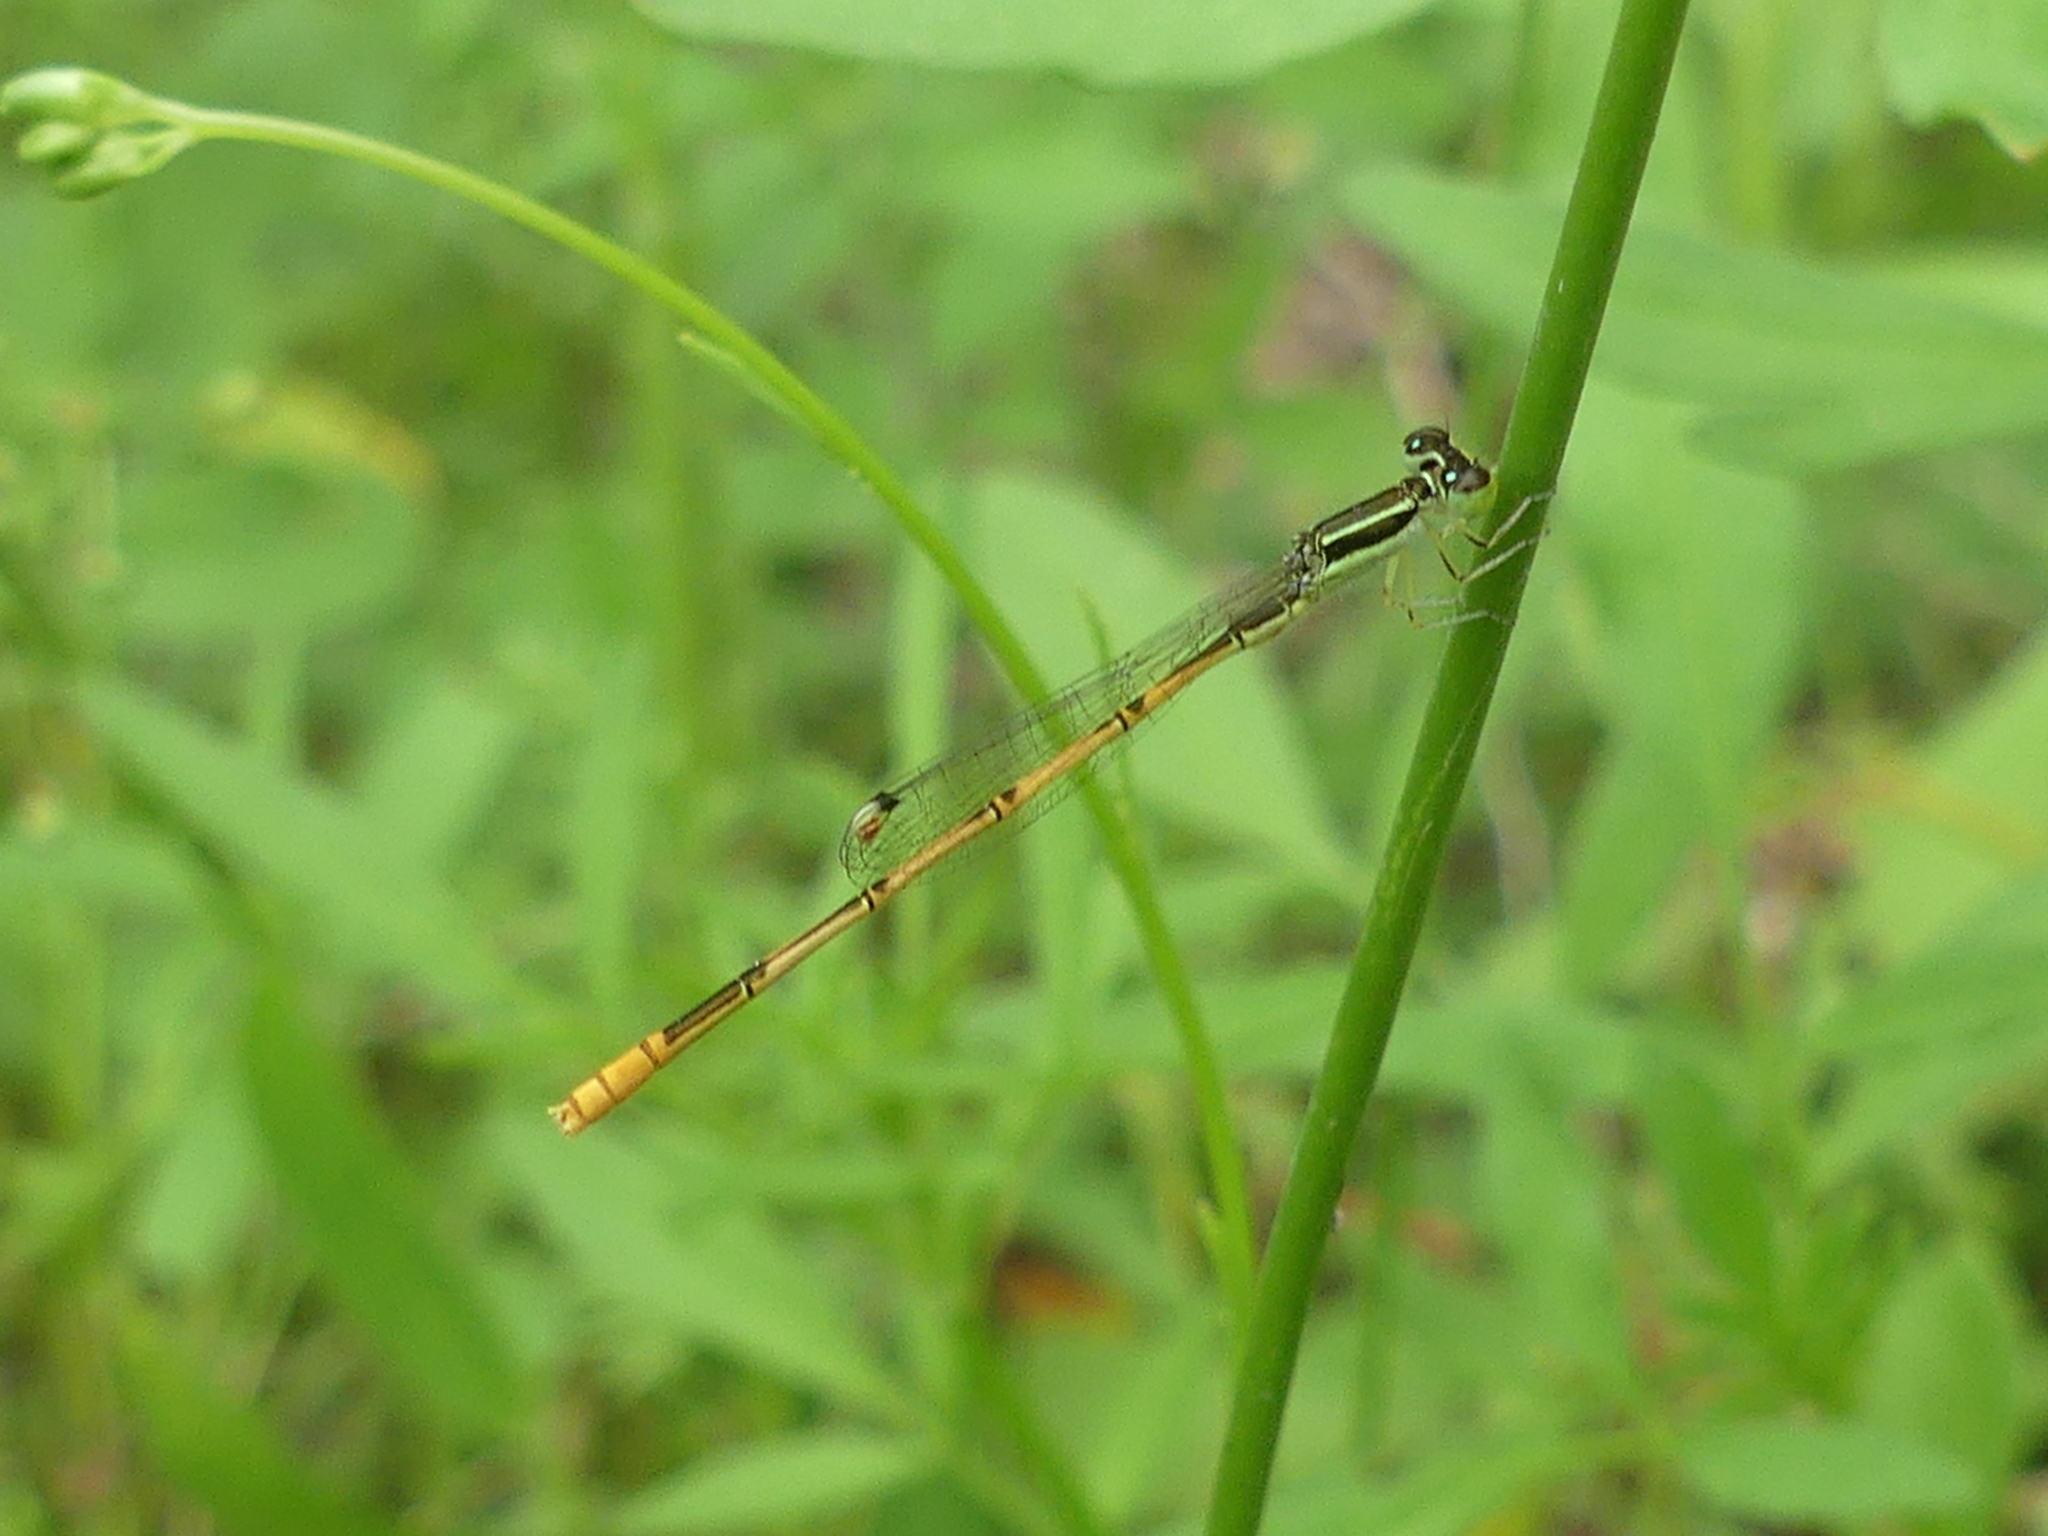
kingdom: Animalia
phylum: Arthropoda
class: Insecta
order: Odonata
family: Coenagrionidae
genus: Ischnura
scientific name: Ischnura hastata
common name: Citrine forktail
